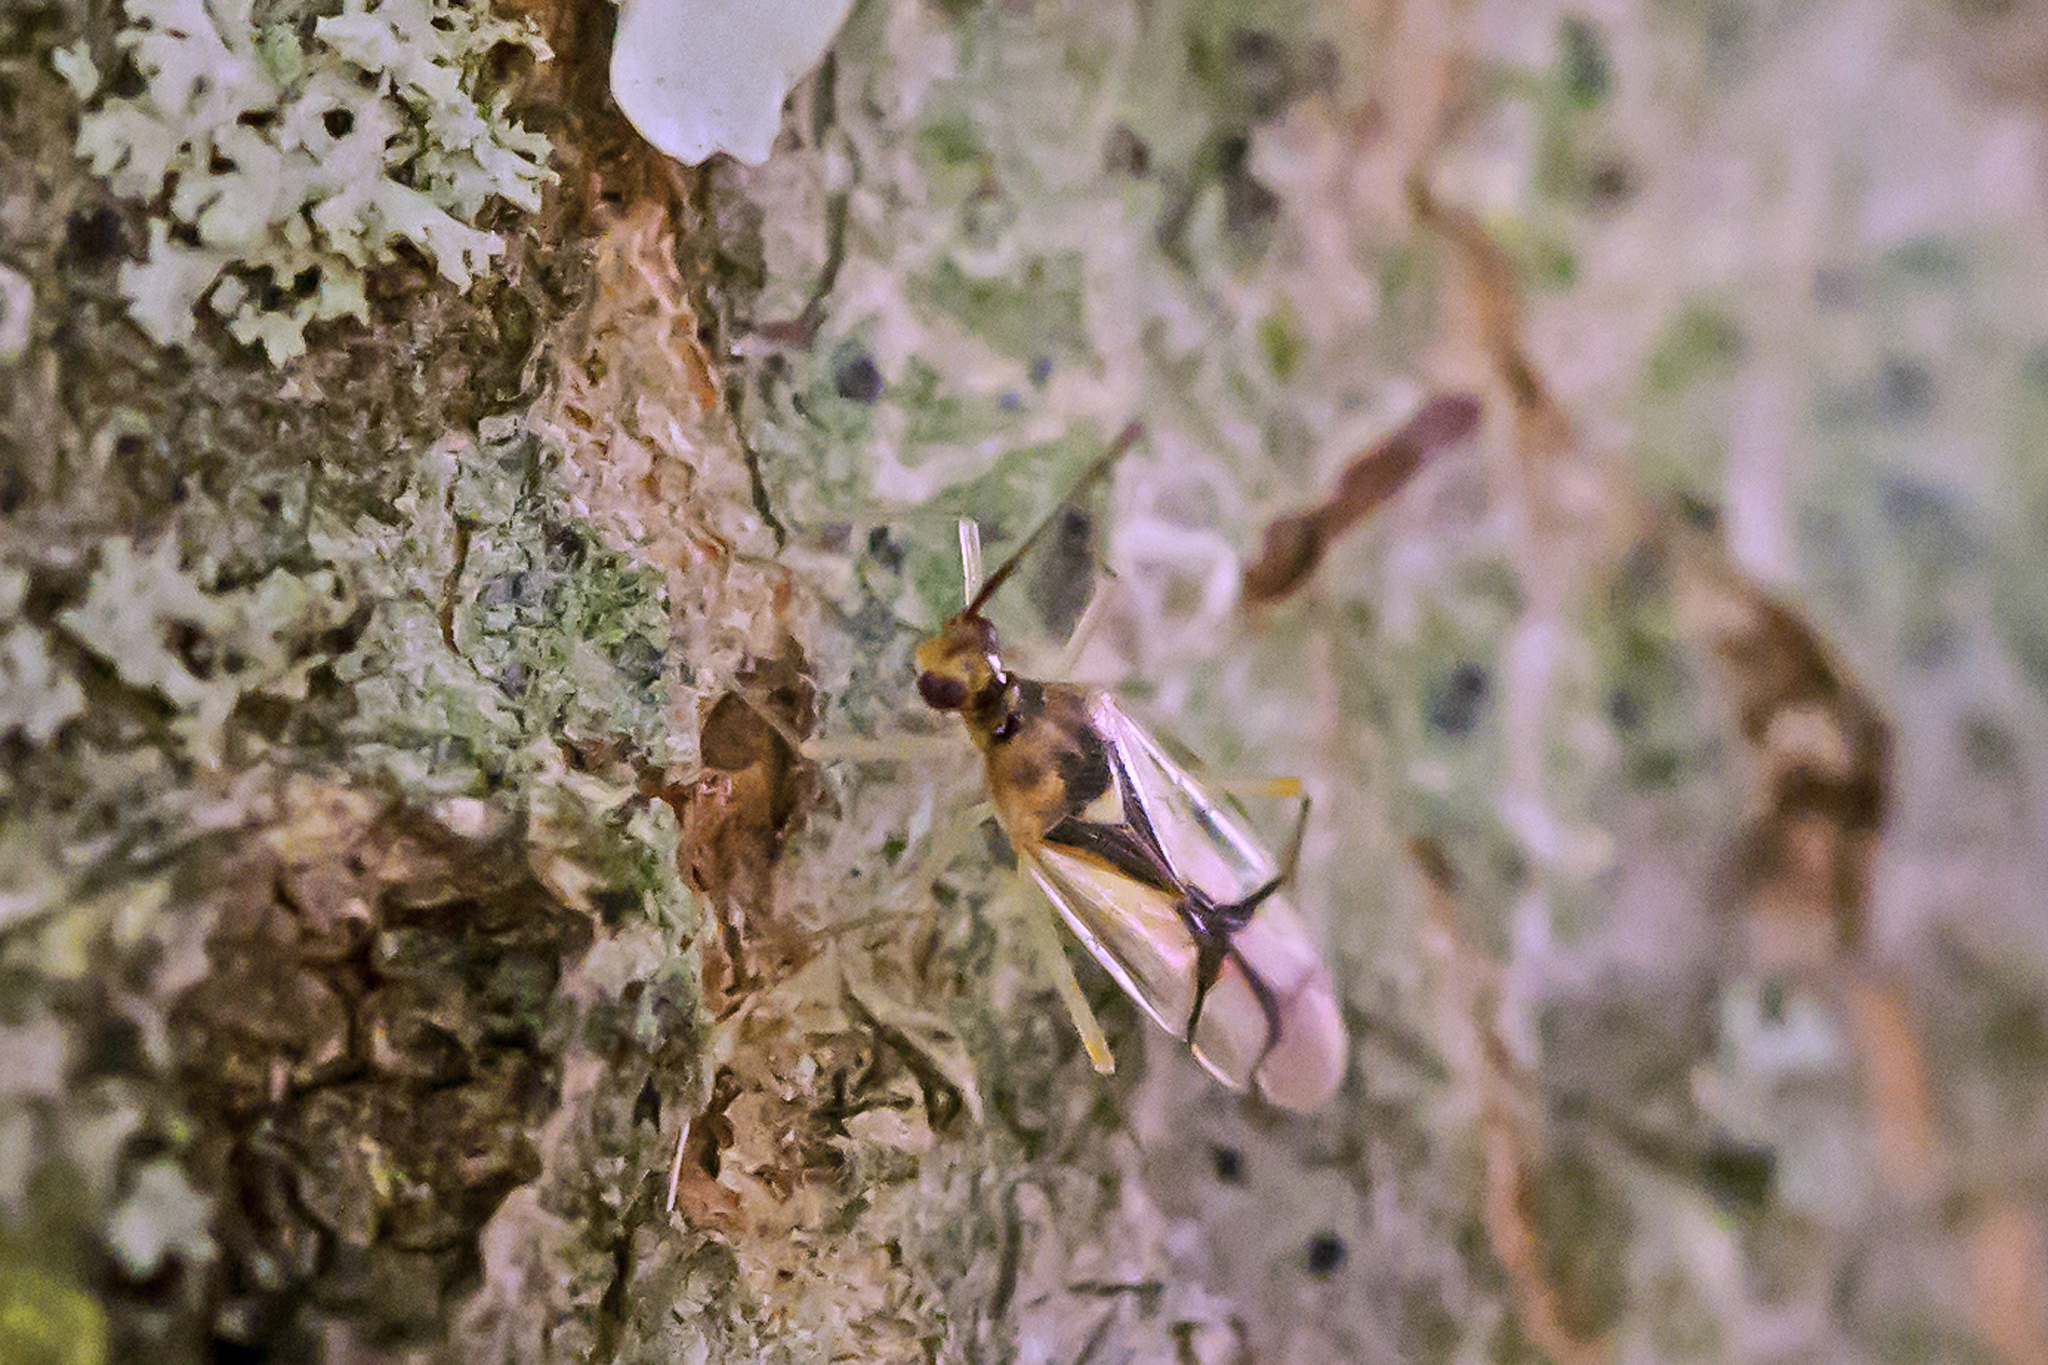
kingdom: Animalia
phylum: Arthropoda
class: Insecta
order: Hemiptera
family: Miridae
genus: Hyaliodes
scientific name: Hyaliodes vitripennis
